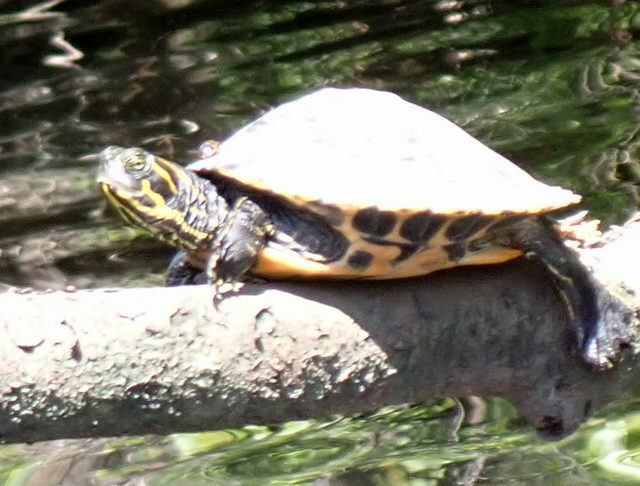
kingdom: Animalia
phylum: Chordata
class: Testudines
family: Emydidae
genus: Pseudemys
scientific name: Pseudemys concinna
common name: Eastern river cooter
